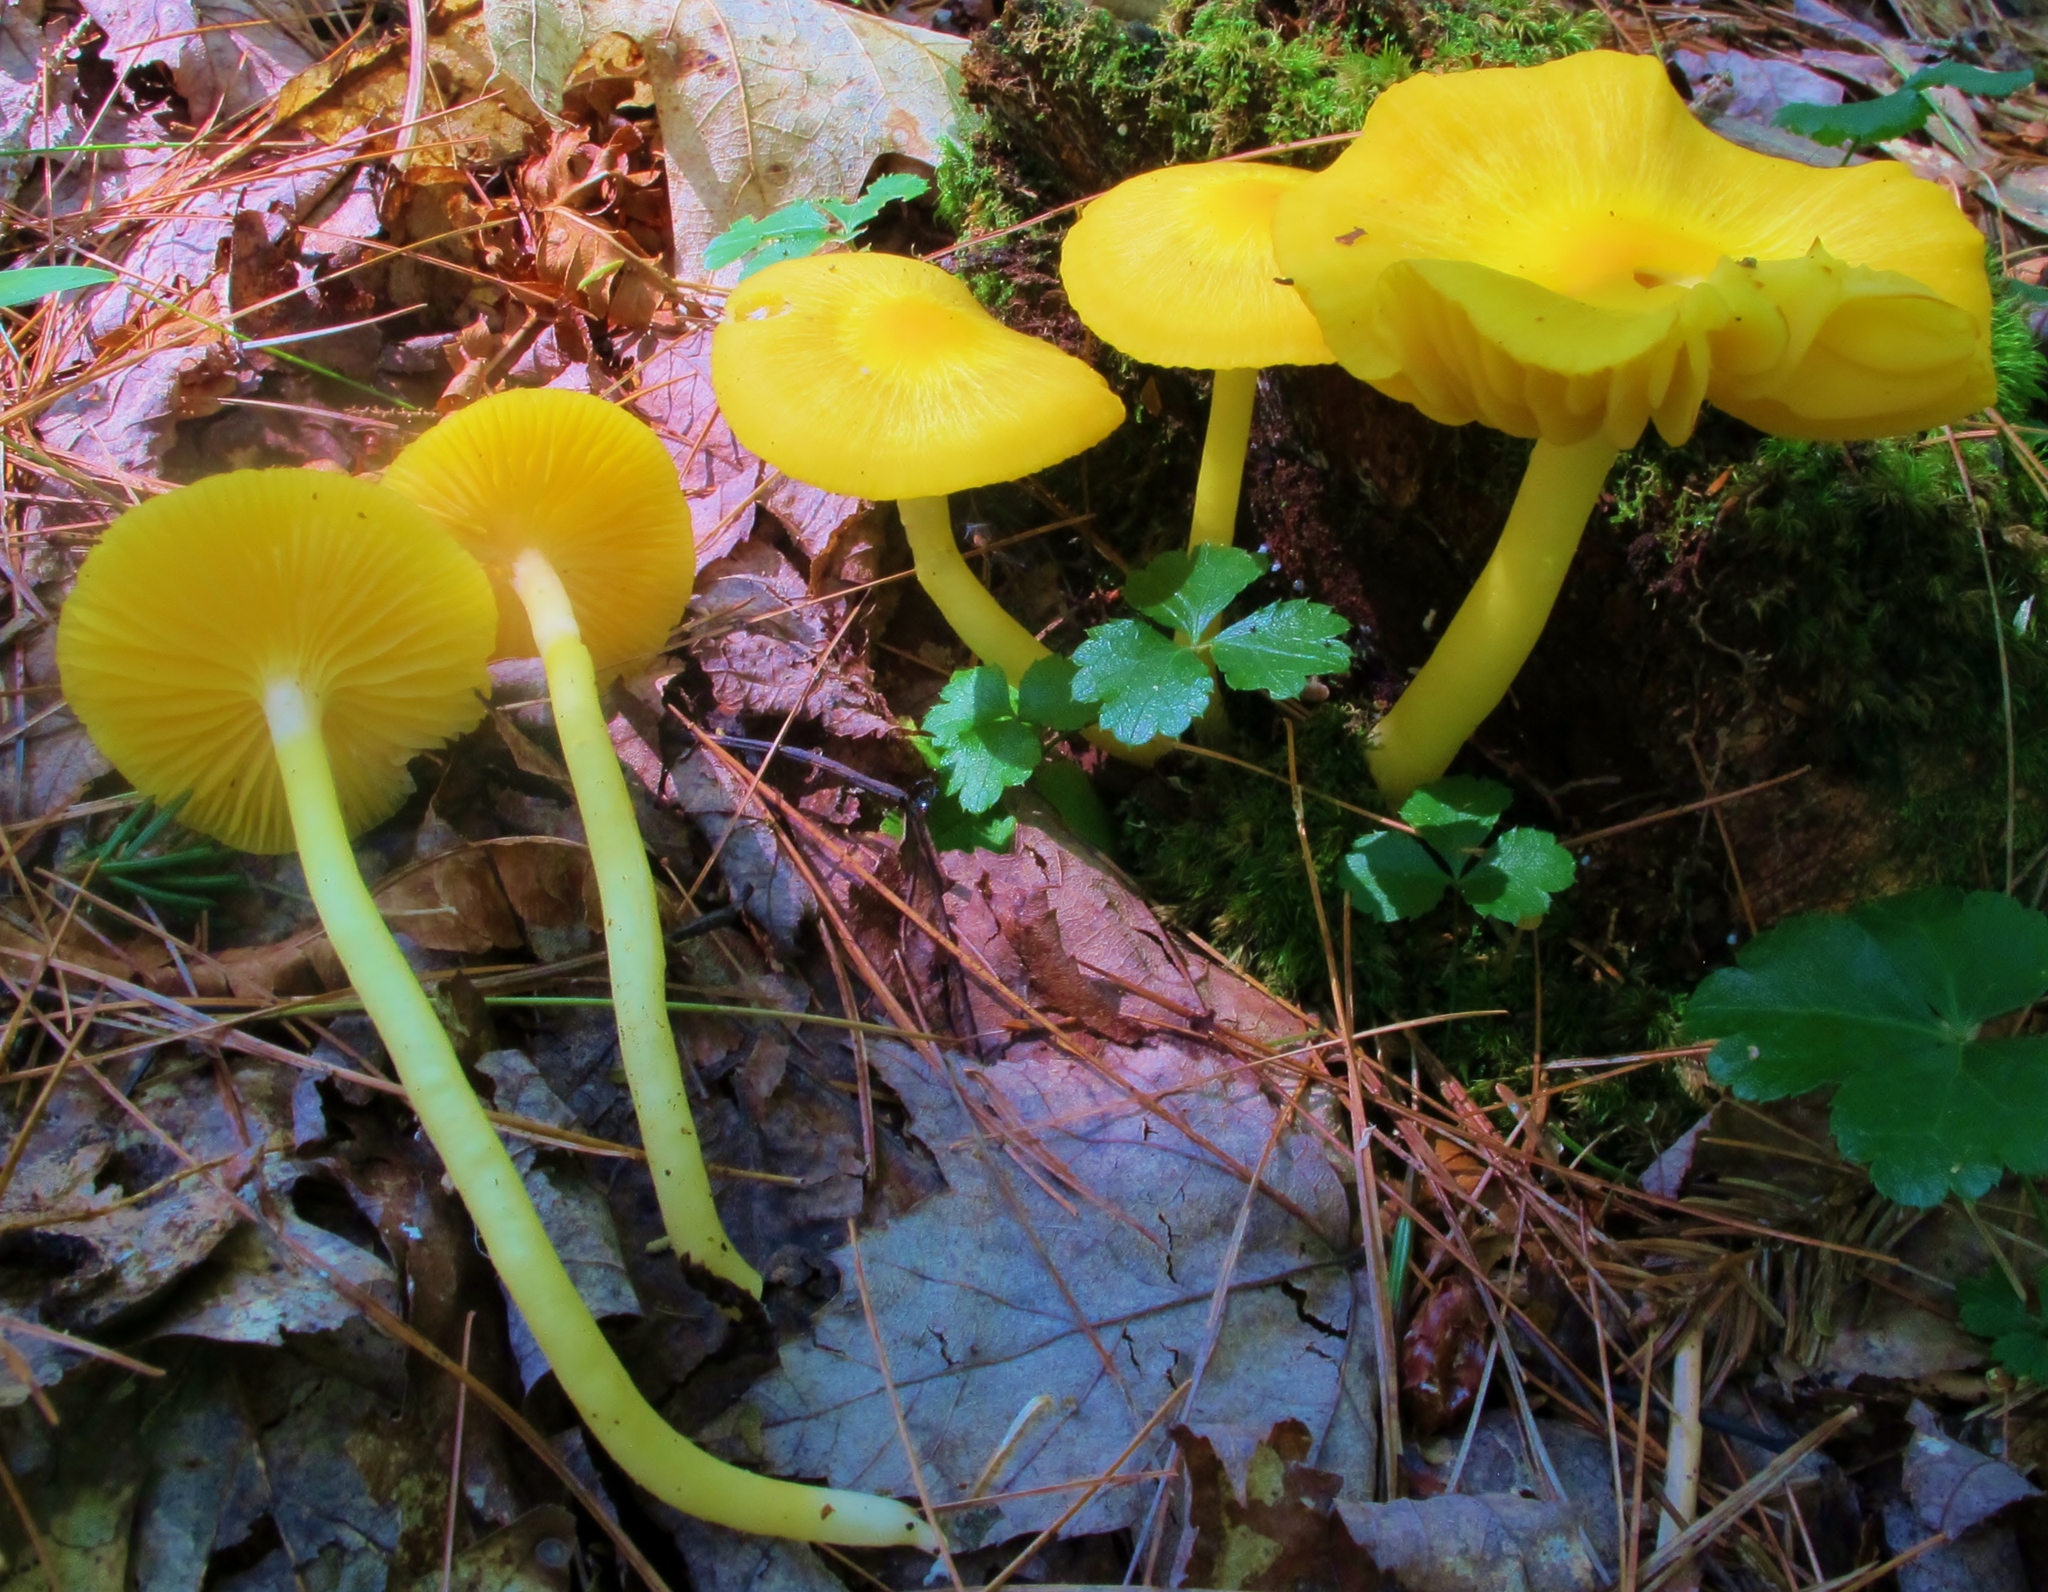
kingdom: Fungi
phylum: Basidiomycota
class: Agaricomycetes
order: Agaricales
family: Hygrophoraceae
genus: Humidicutis
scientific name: Humidicutis marginata
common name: Orange gilled waxcap
